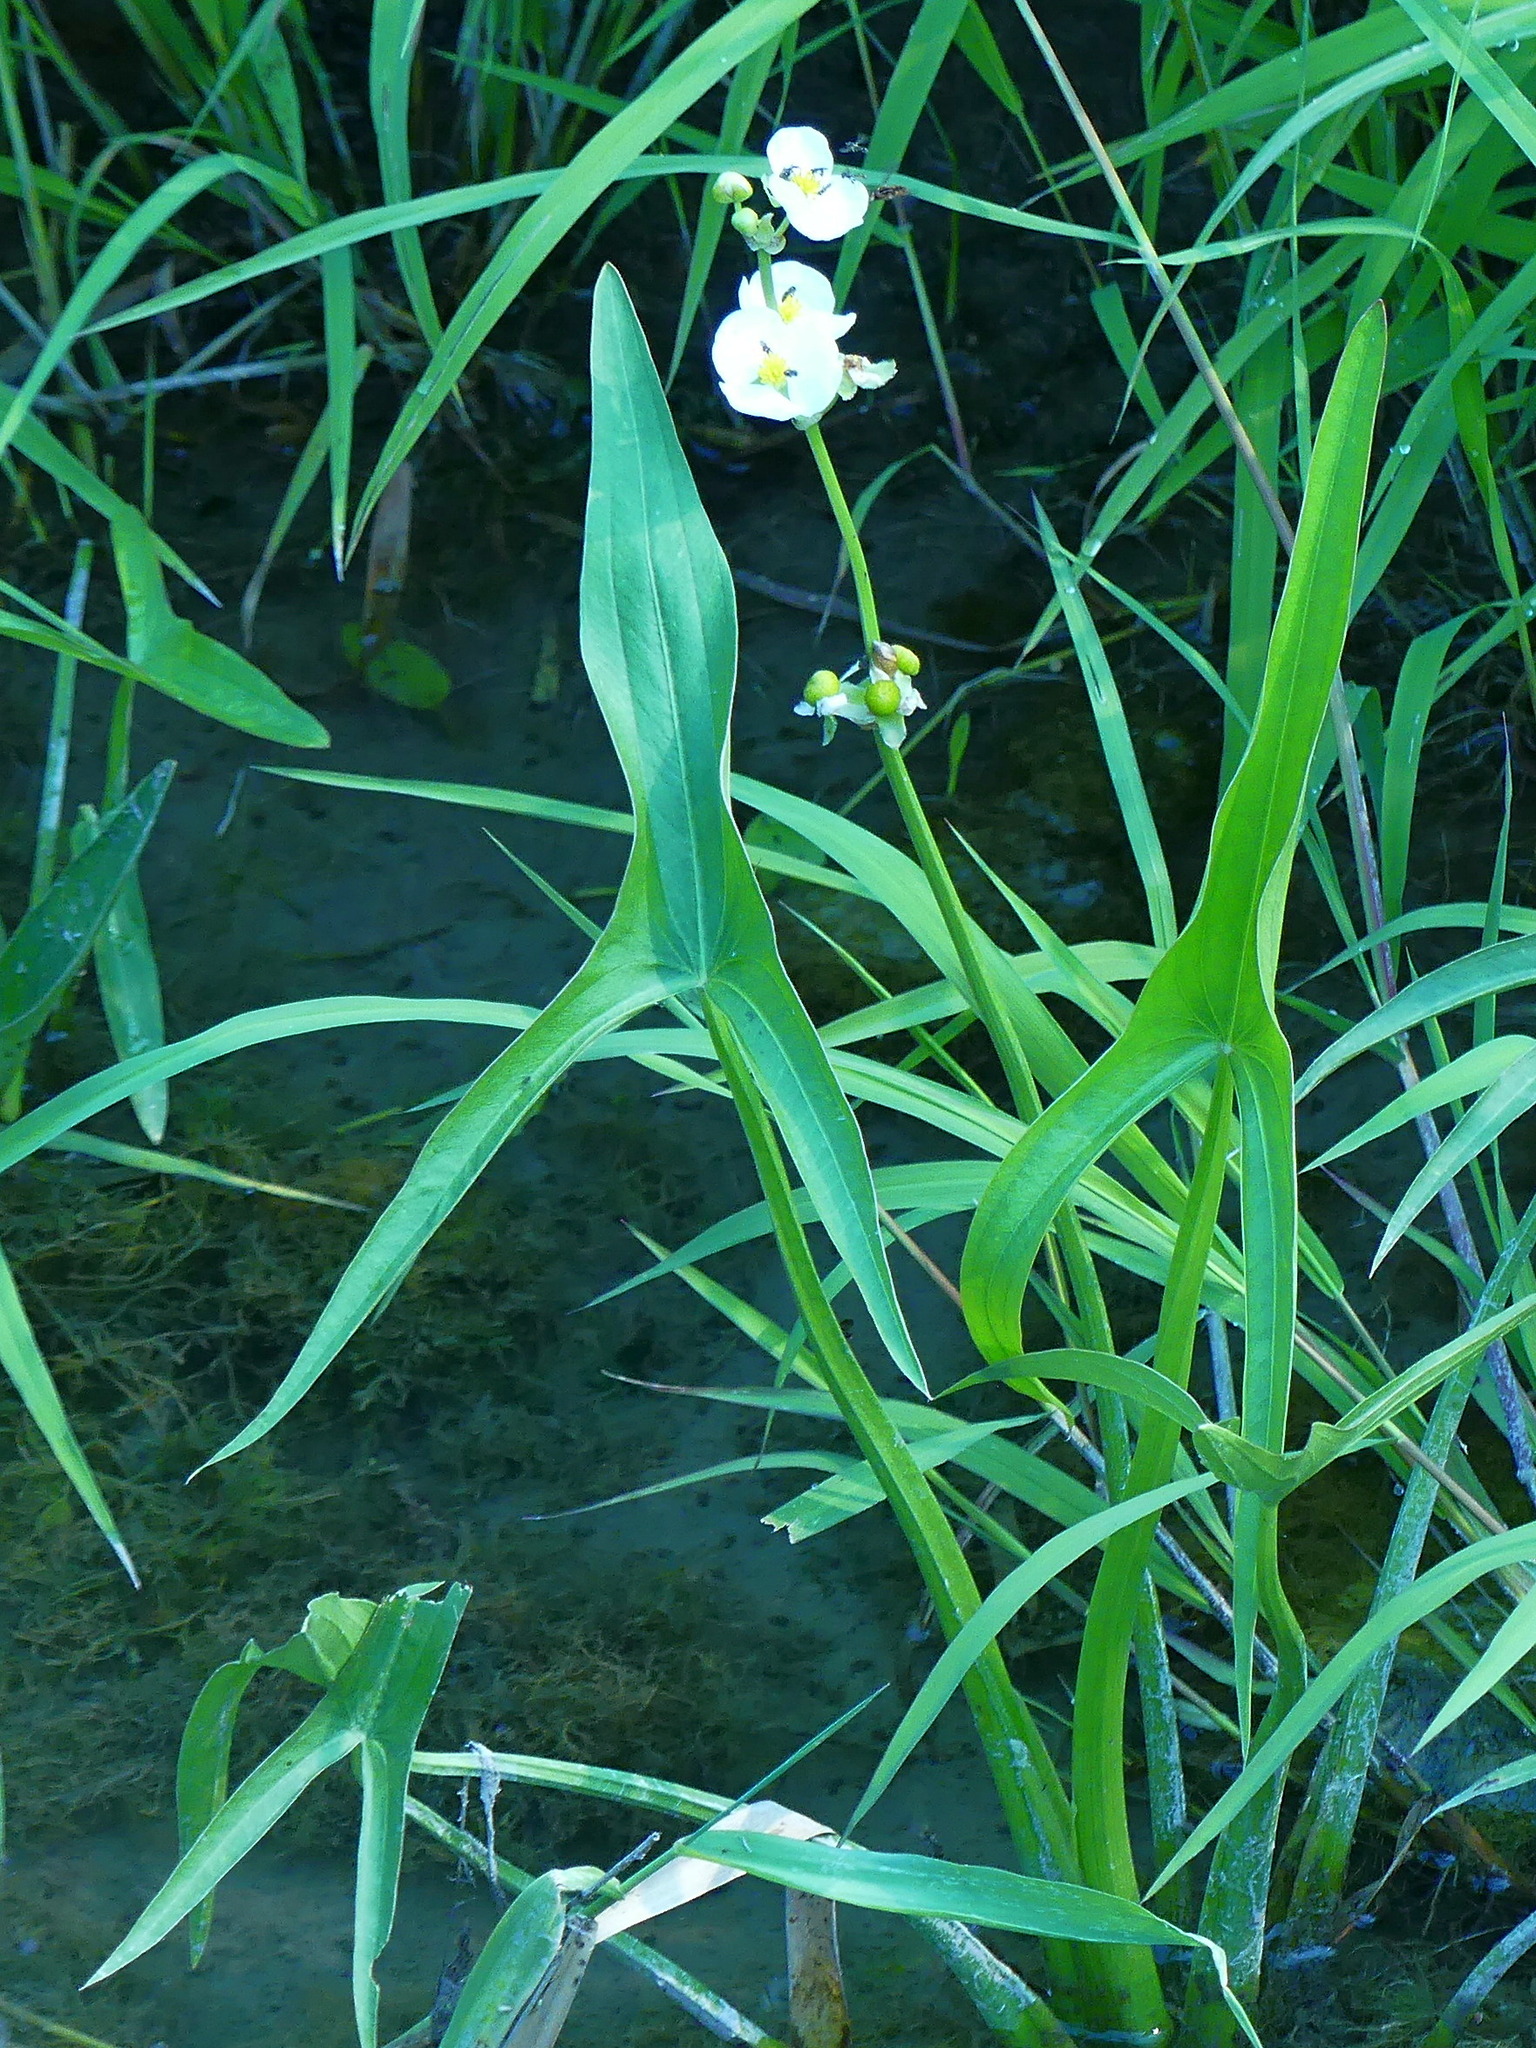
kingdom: Plantae
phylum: Tracheophyta
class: Liliopsida
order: Alismatales
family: Alismataceae
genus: Sagittaria
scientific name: Sagittaria latifolia
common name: Duck-potato
